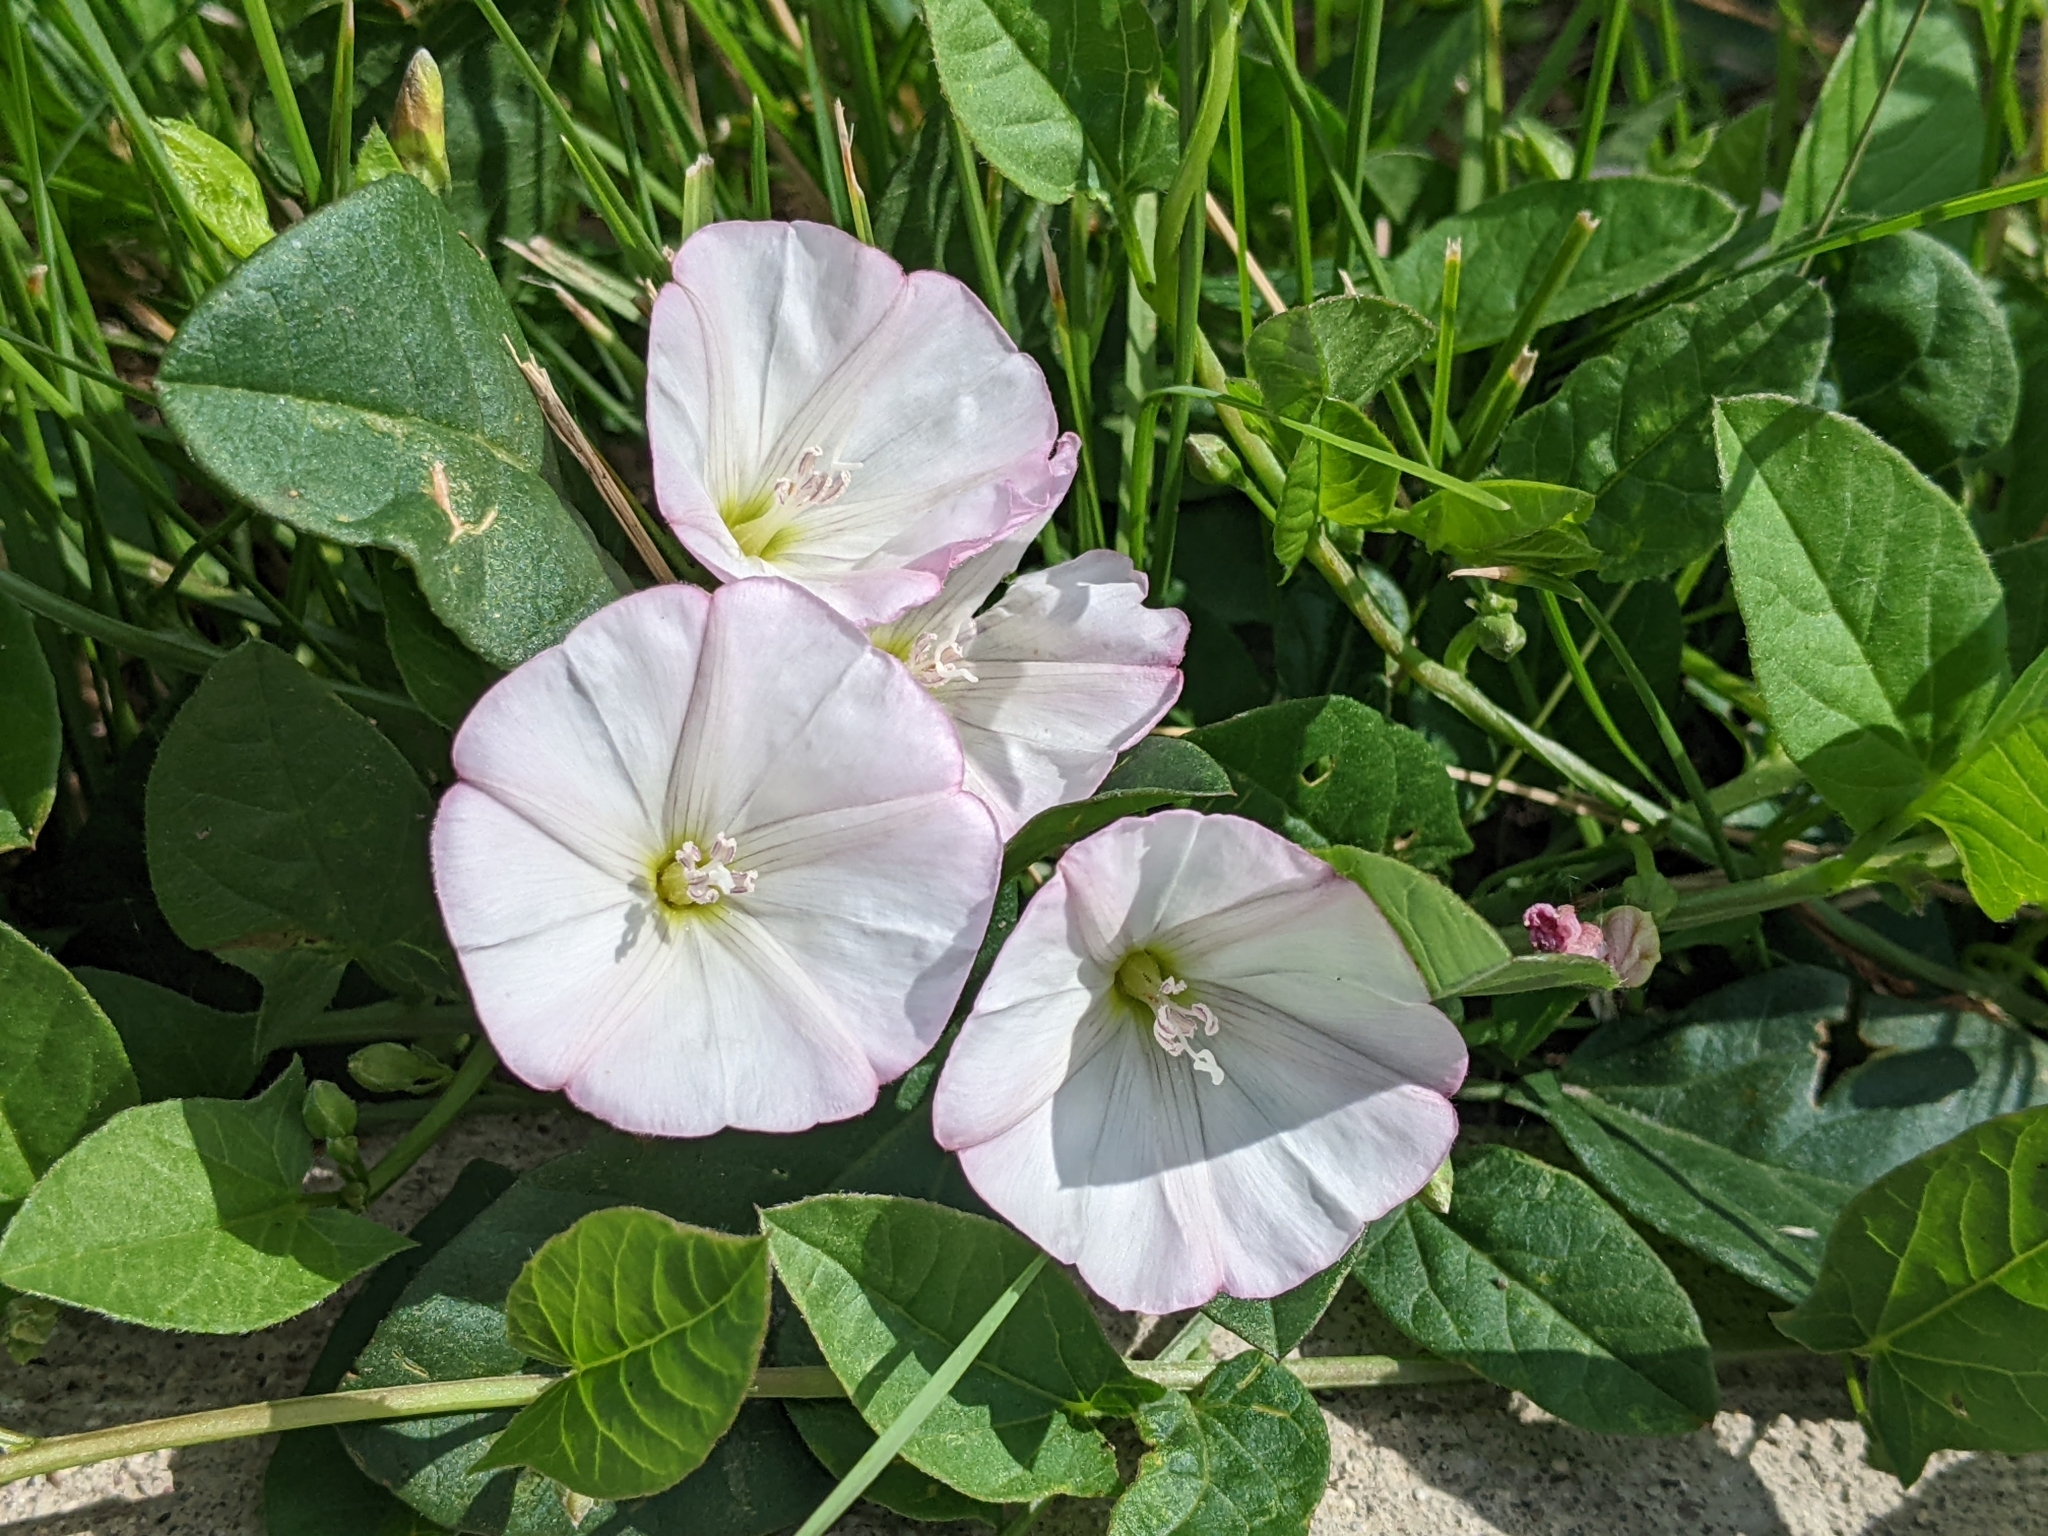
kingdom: Plantae
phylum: Tracheophyta
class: Magnoliopsida
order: Solanales
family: Convolvulaceae
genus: Convolvulus
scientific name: Convolvulus arvensis
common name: Field bindweed
